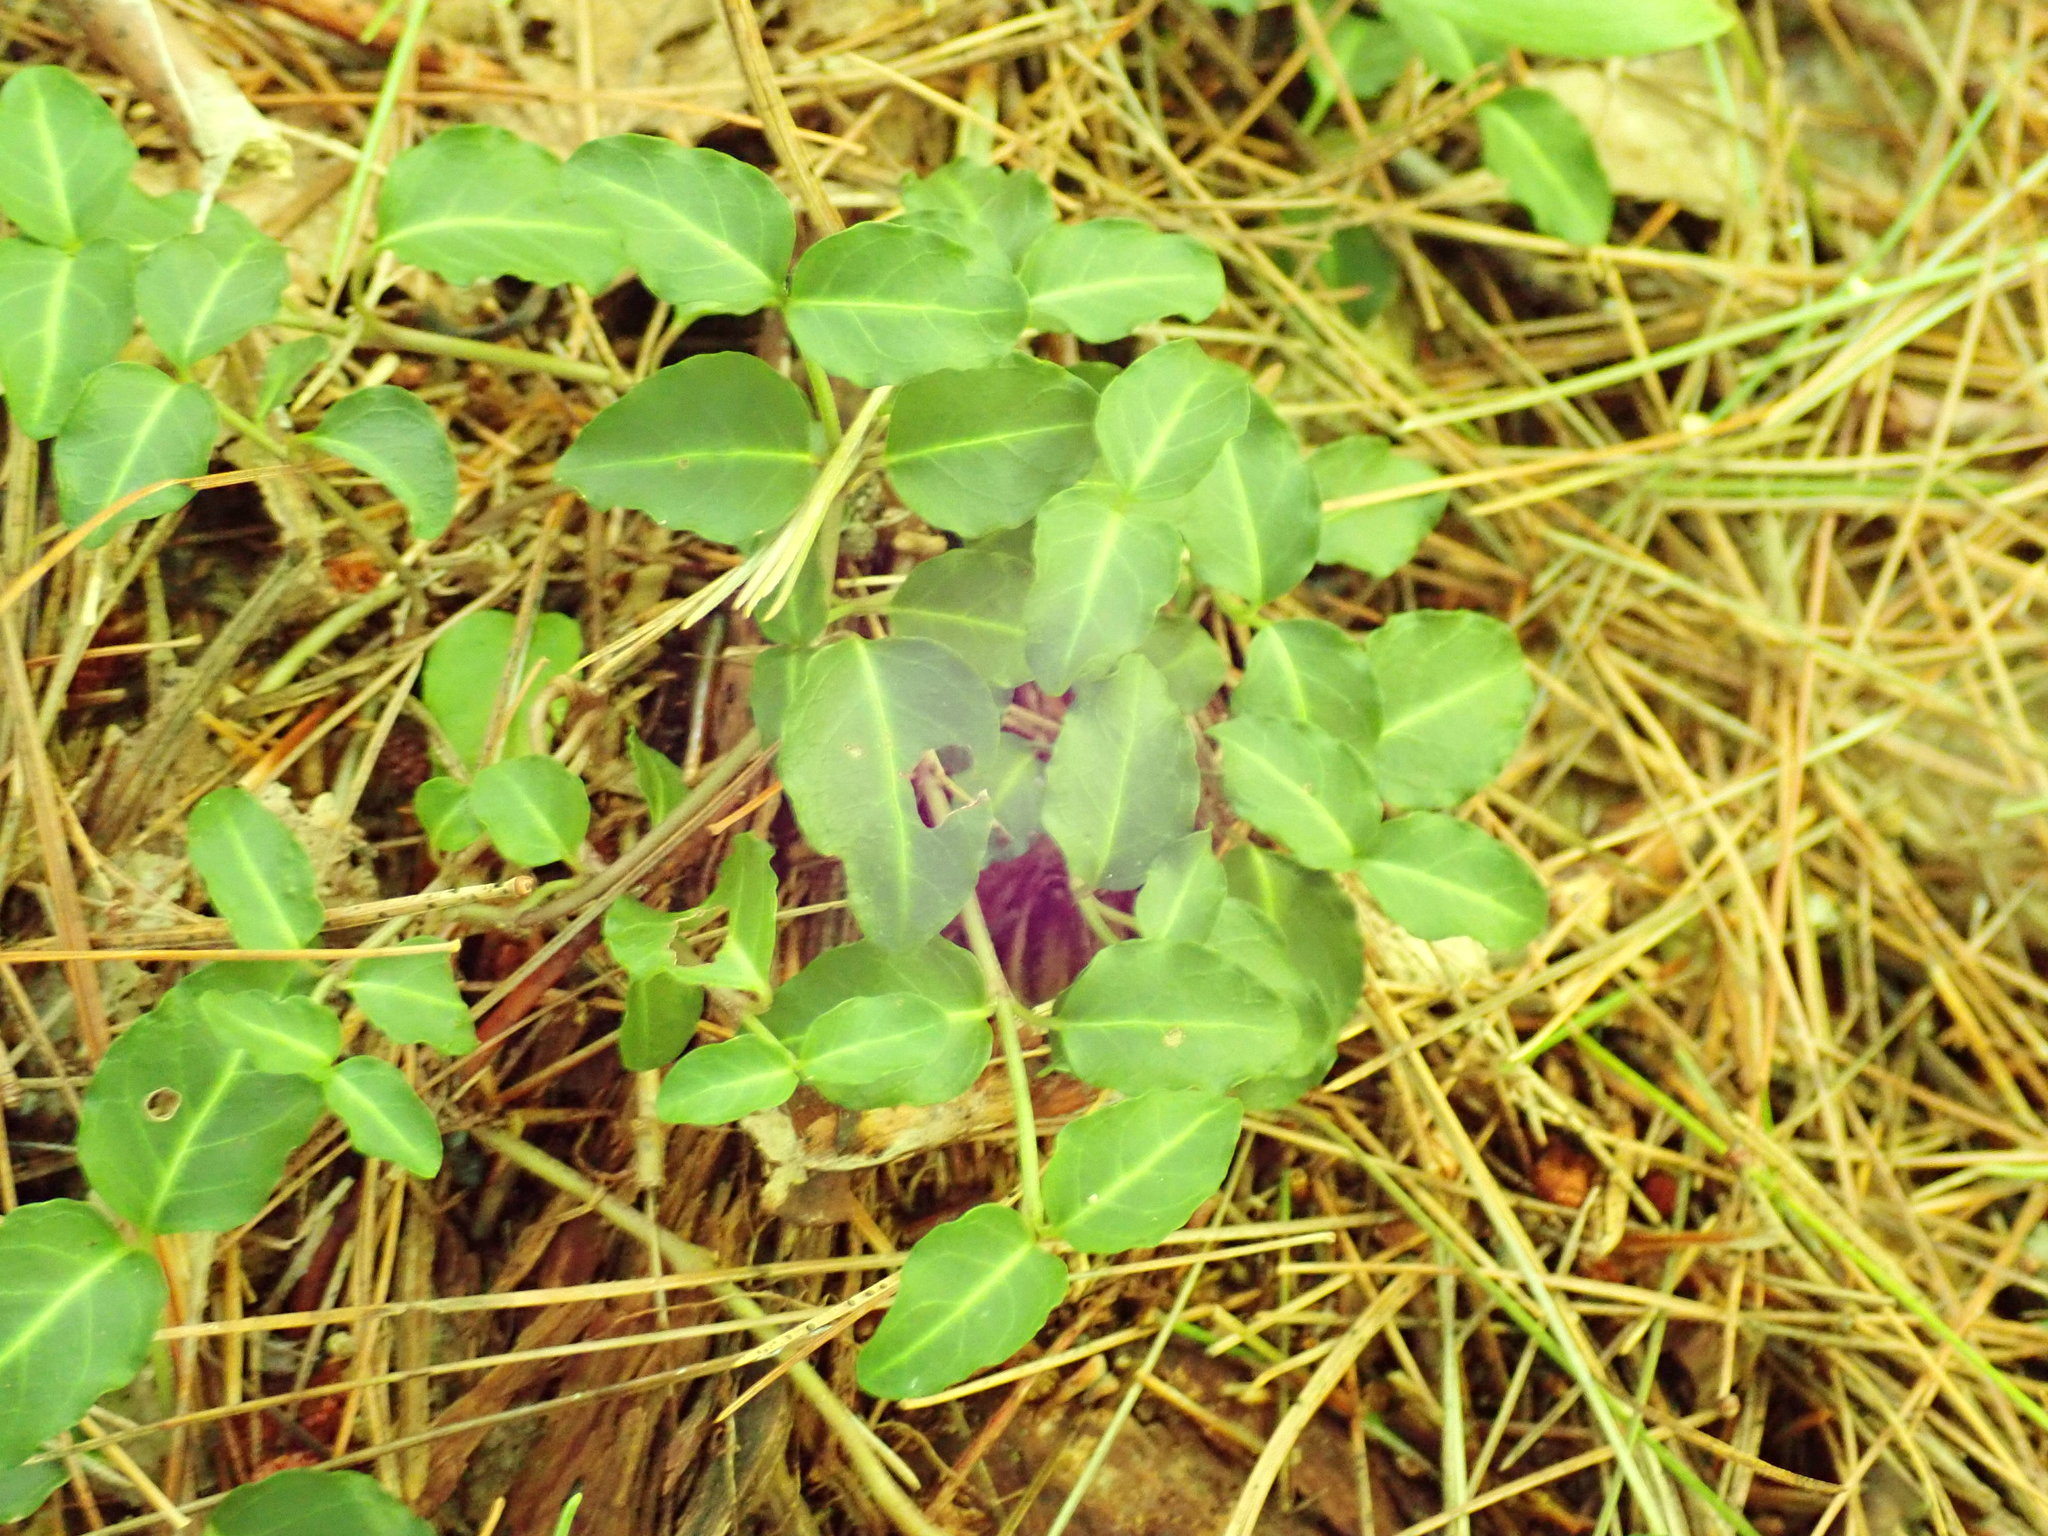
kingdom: Plantae
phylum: Tracheophyta
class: Magnoliopsida
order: Gentianales
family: Rubiaceae
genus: Mitchella
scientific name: Mitchella repens
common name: Partridge-berry
